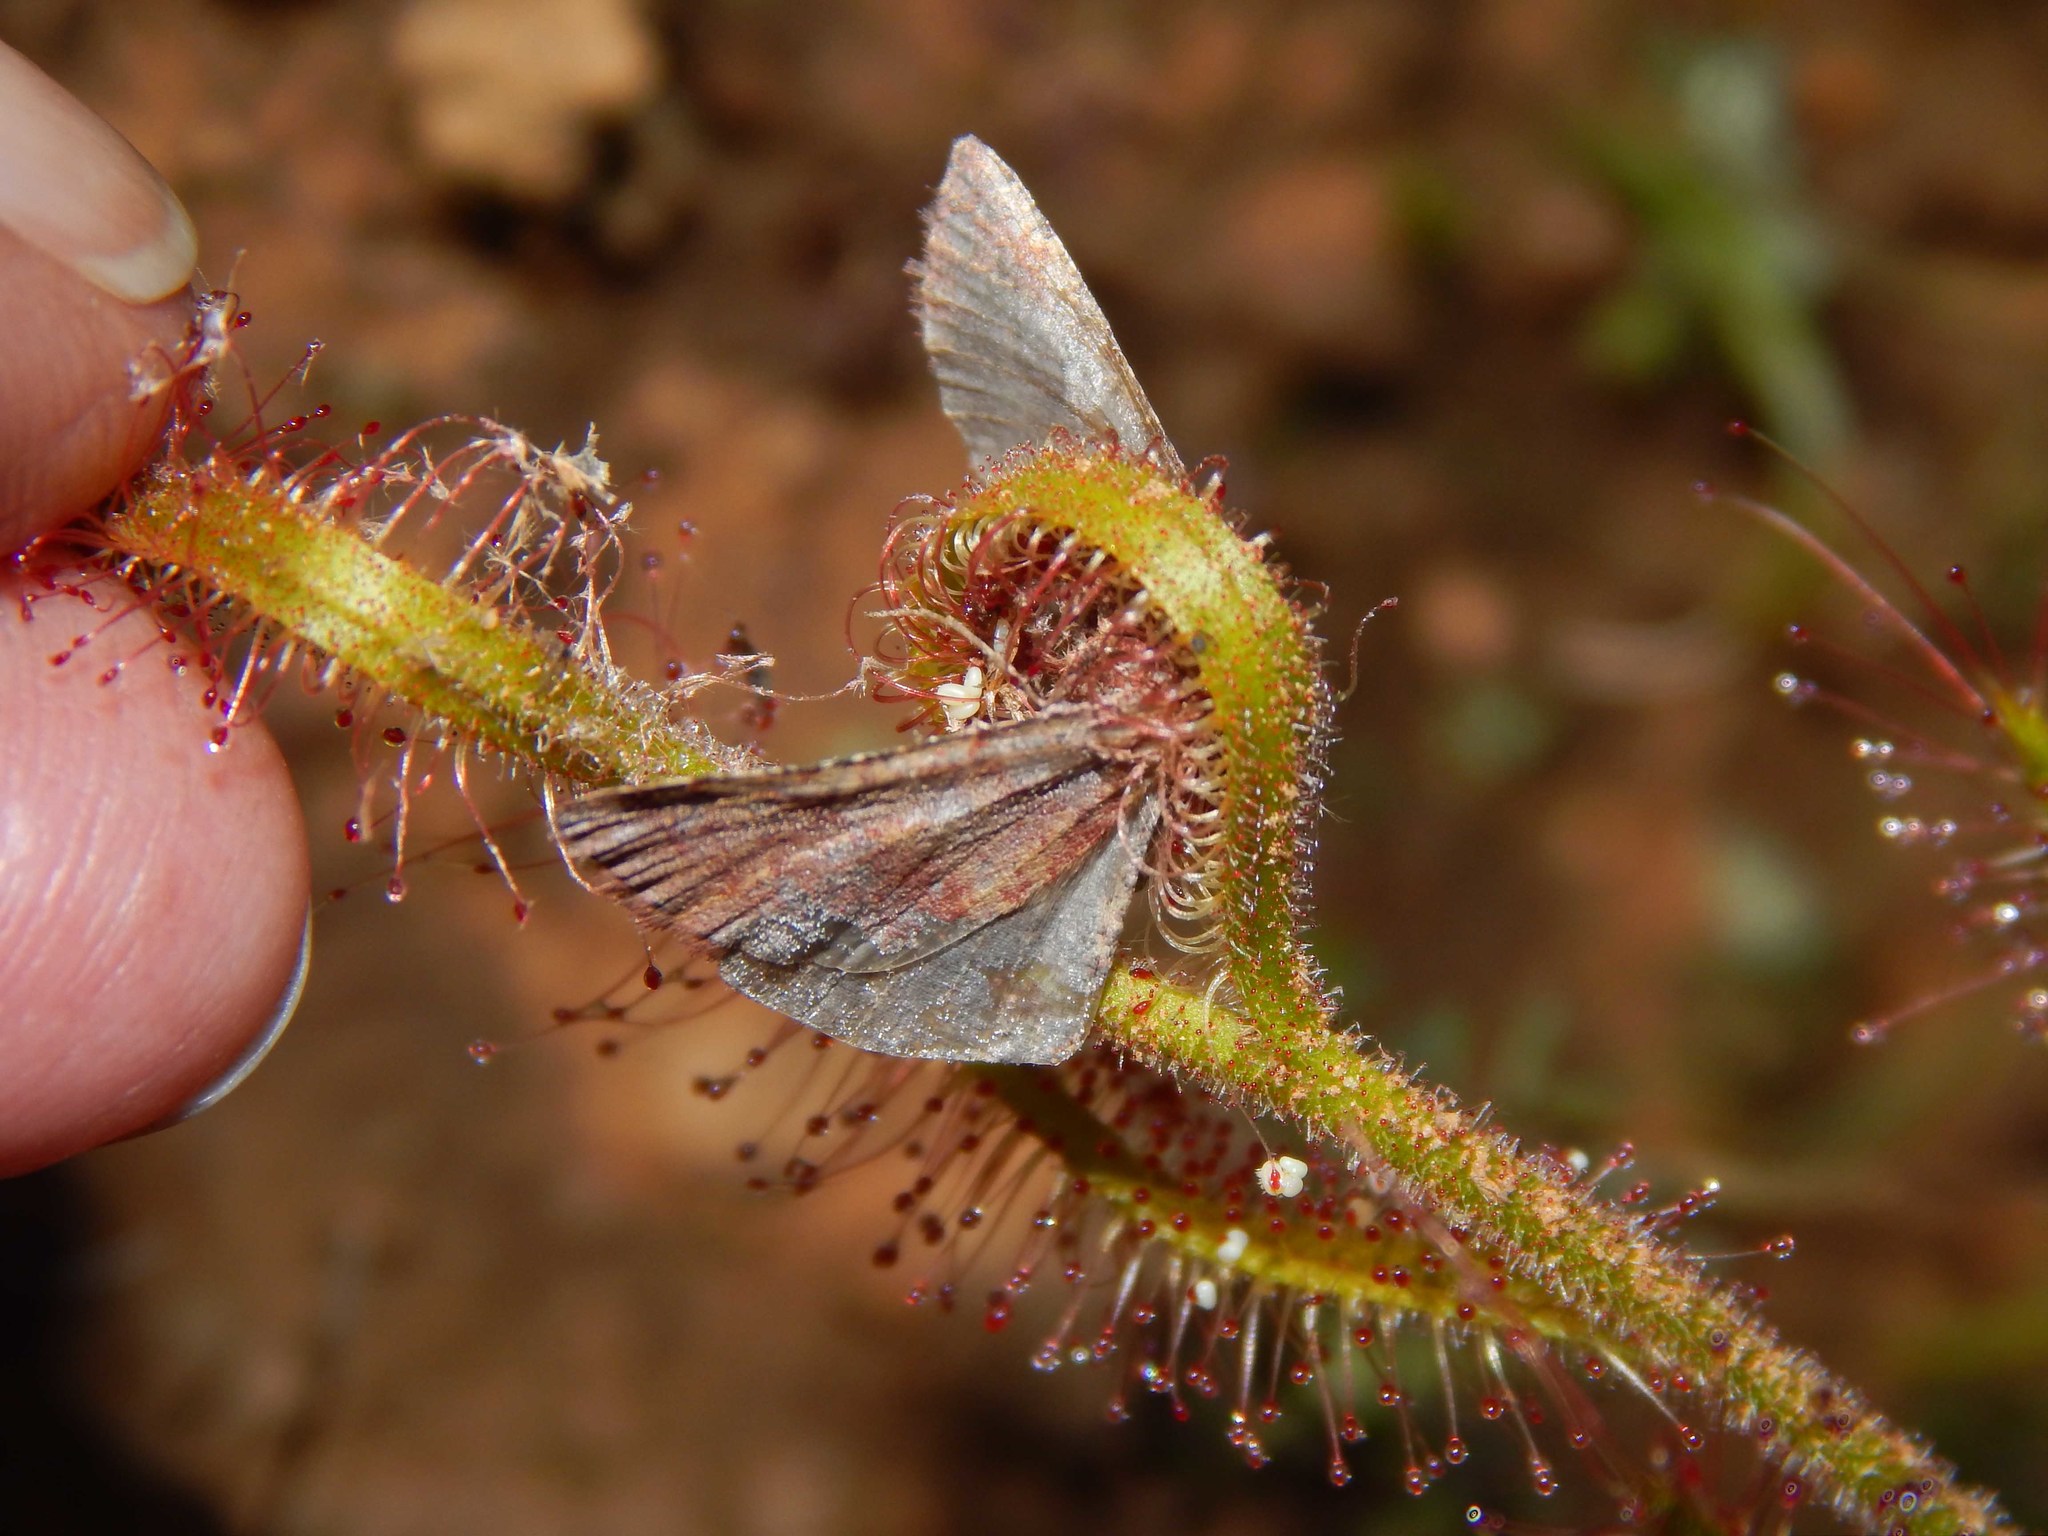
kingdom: Plantae
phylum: Tracheophyta
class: Magnoliopsida
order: Caryophyllales
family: Droseraceae
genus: Drosera
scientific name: Drosera cistiflora
